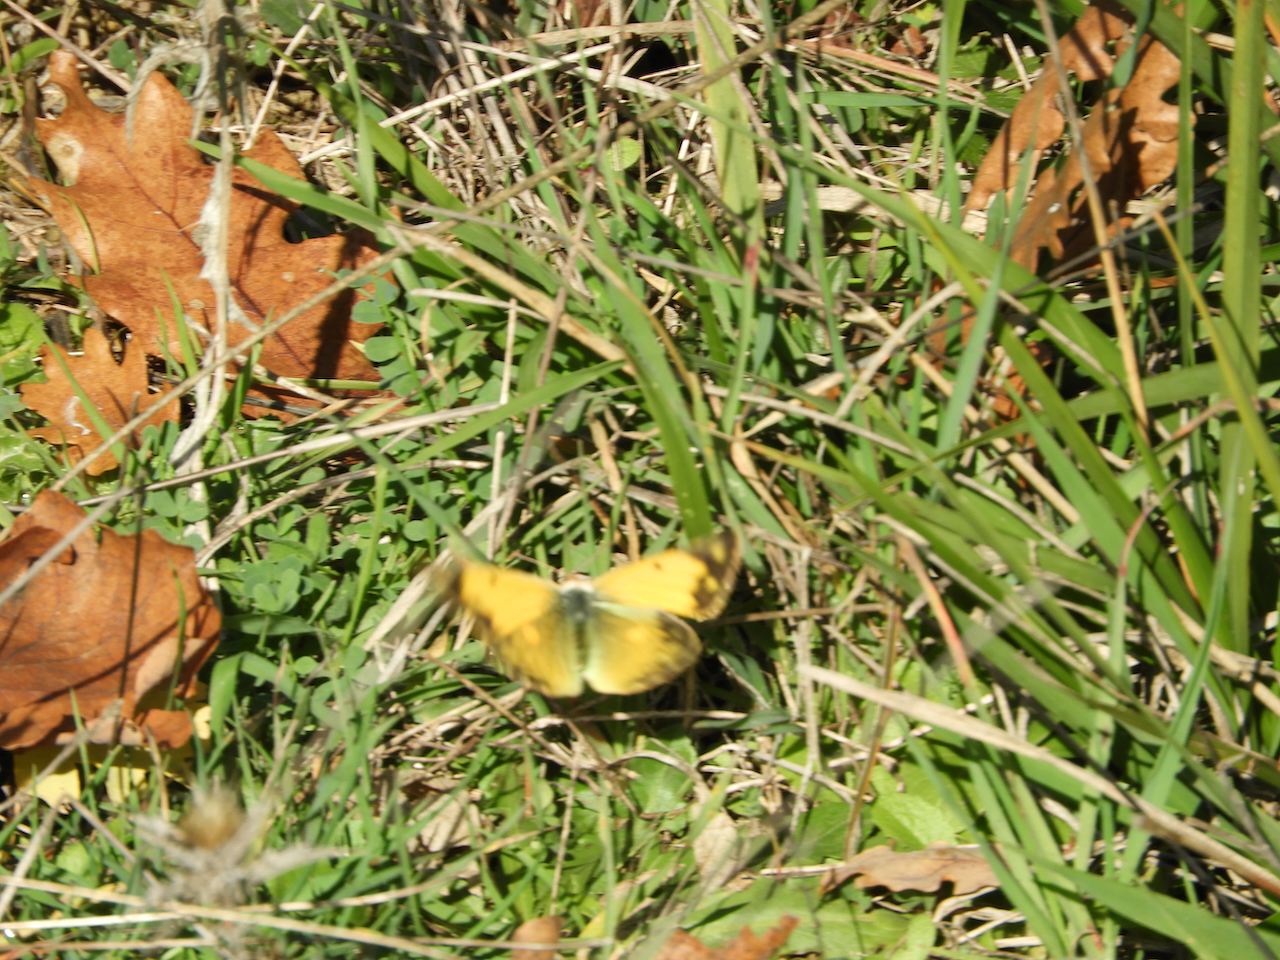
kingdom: Animalia
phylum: Arthropoda
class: Insecta
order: Lepidoptera
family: Pieridae
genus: Colias
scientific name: Colias croceus
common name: Clouded yellow
